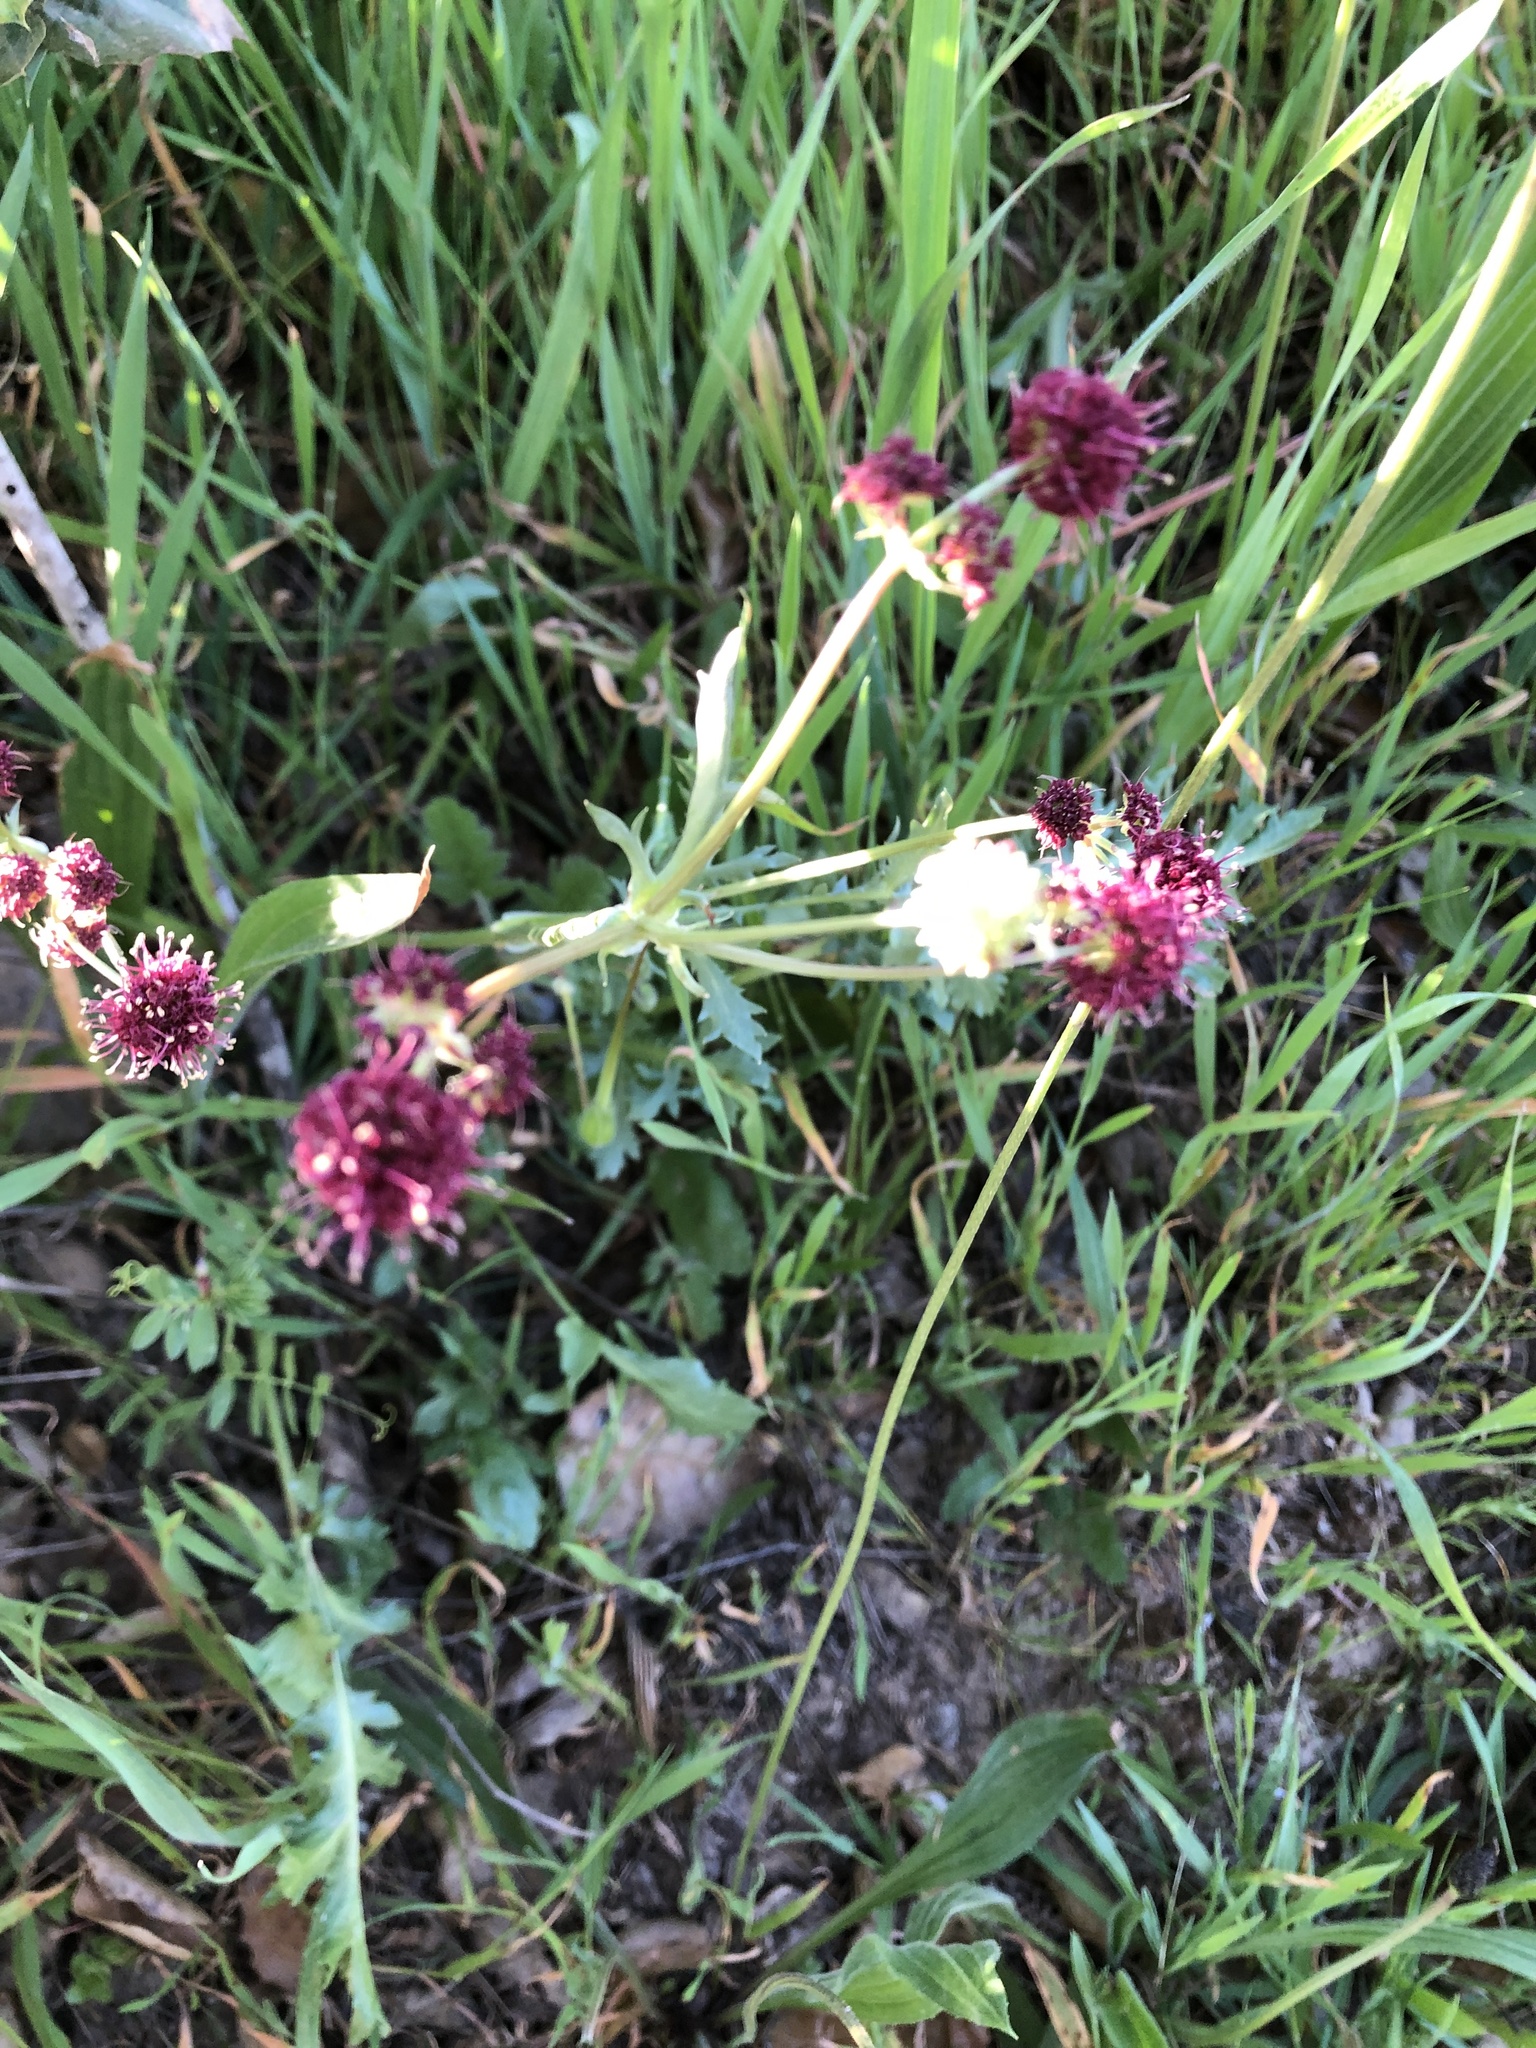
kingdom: Plantae
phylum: Tracheophyta
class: Magnoliopsida
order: Apiales
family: Apiaceae
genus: Sanicula
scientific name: Sanicula bipinnatifida
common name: Shoe-buttons
